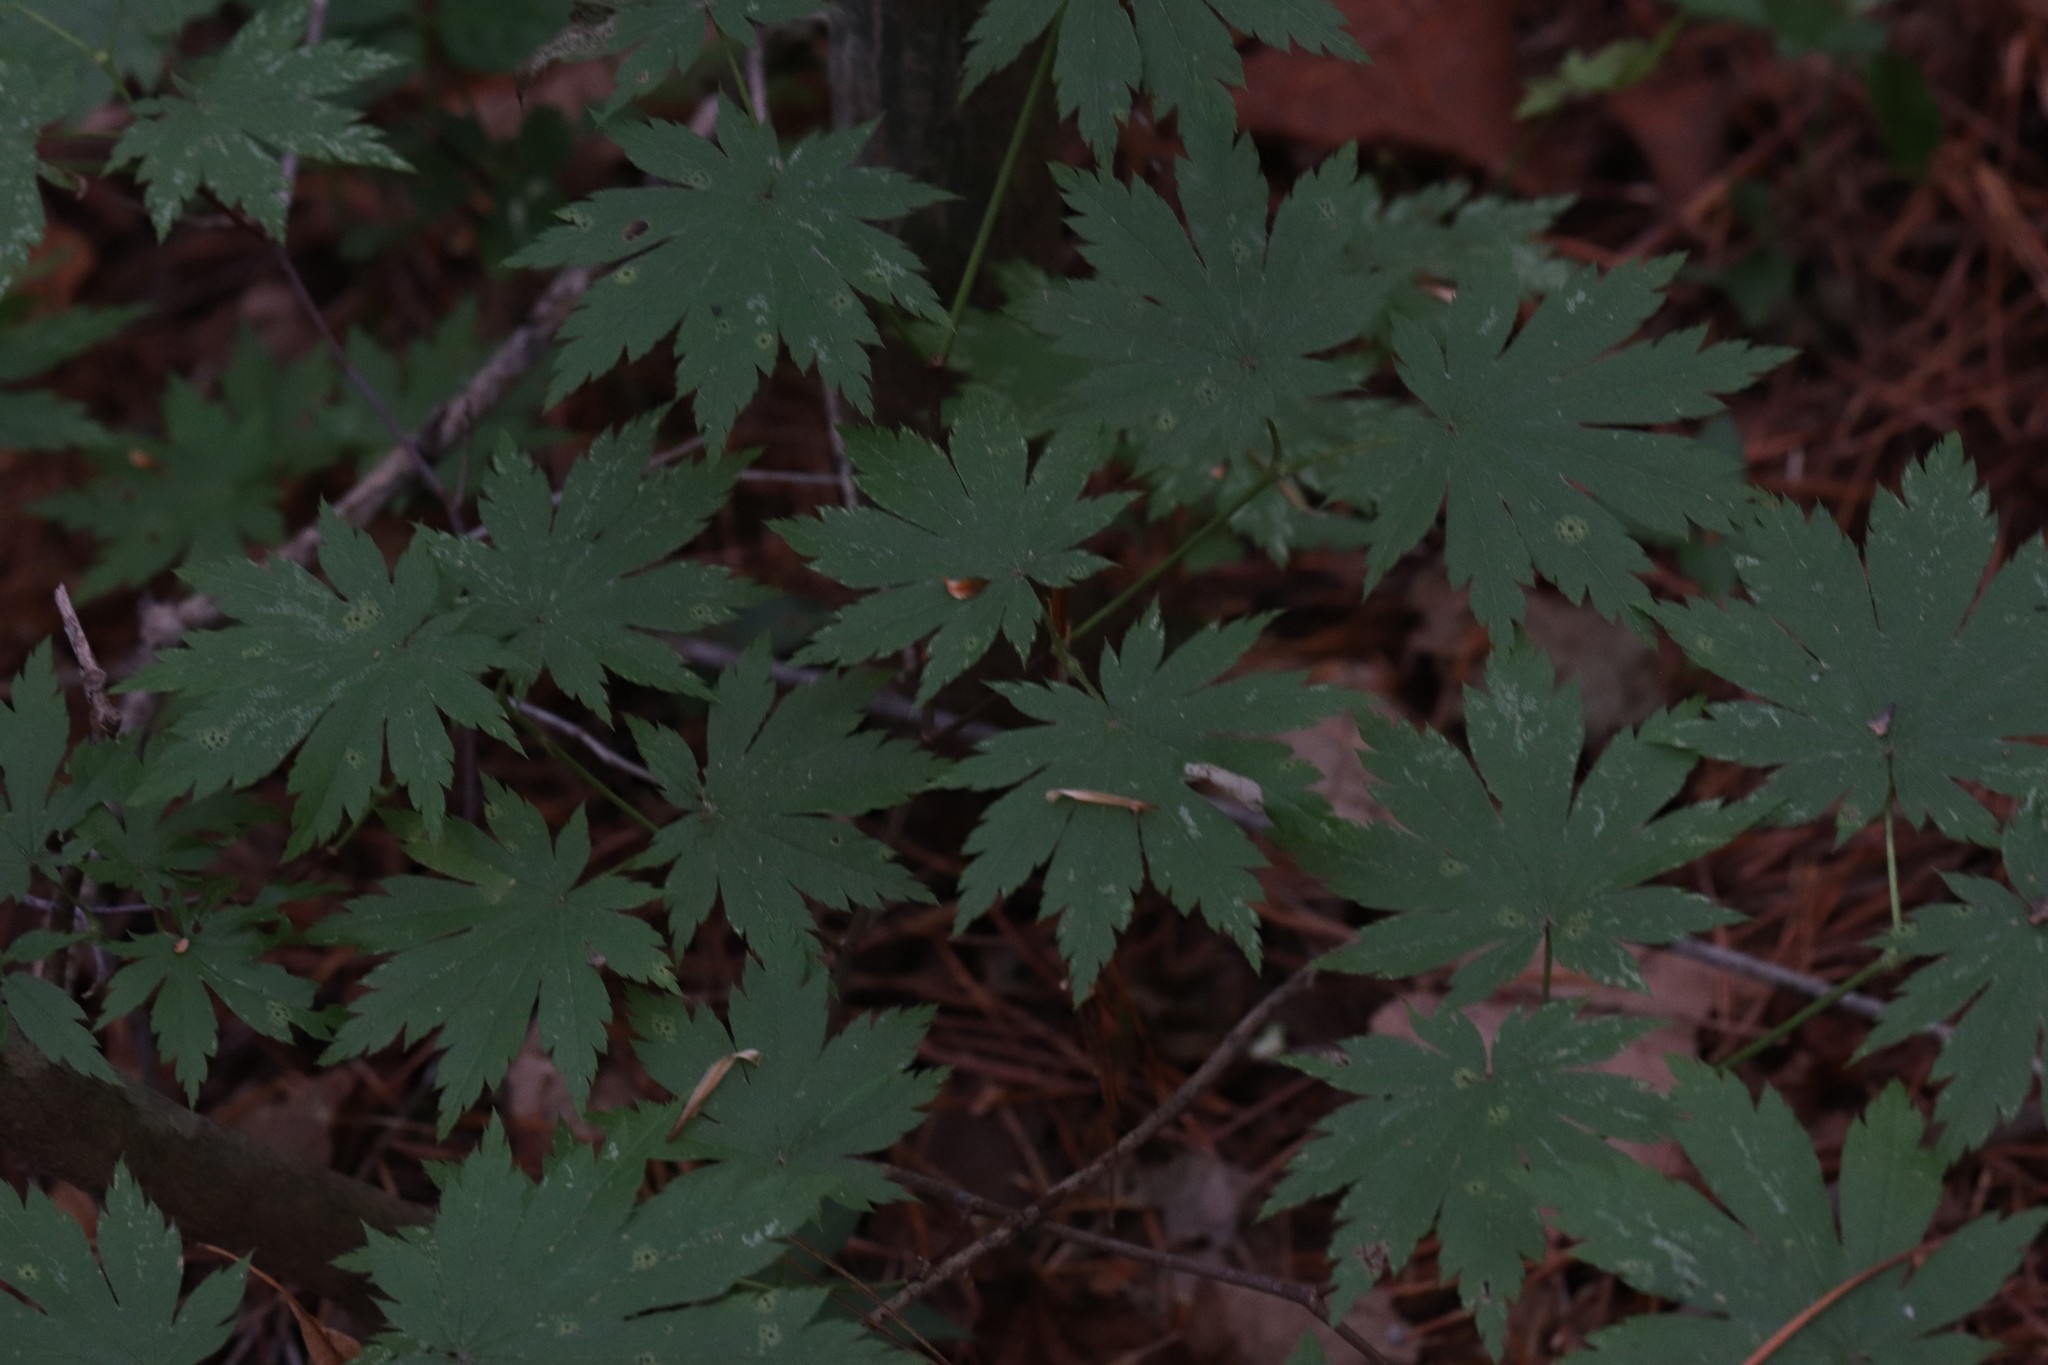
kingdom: Plantae
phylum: Tracheophyta
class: Magnoliopsida
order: Sapindales
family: Sapindaceae
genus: Acer
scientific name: Acer pseudosieboldianum
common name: Korean maple
